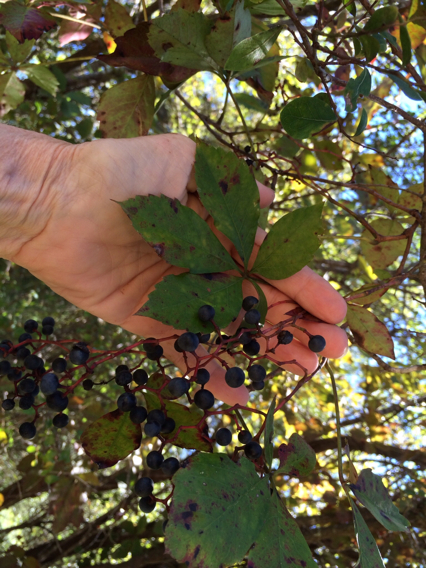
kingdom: Plantae
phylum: Tracheophyta
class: Magnoliopsida
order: Vitales
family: Vitaceae
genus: Parthenocissus
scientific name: Parthenocissus quinquefolia
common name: Virginia-creeper
